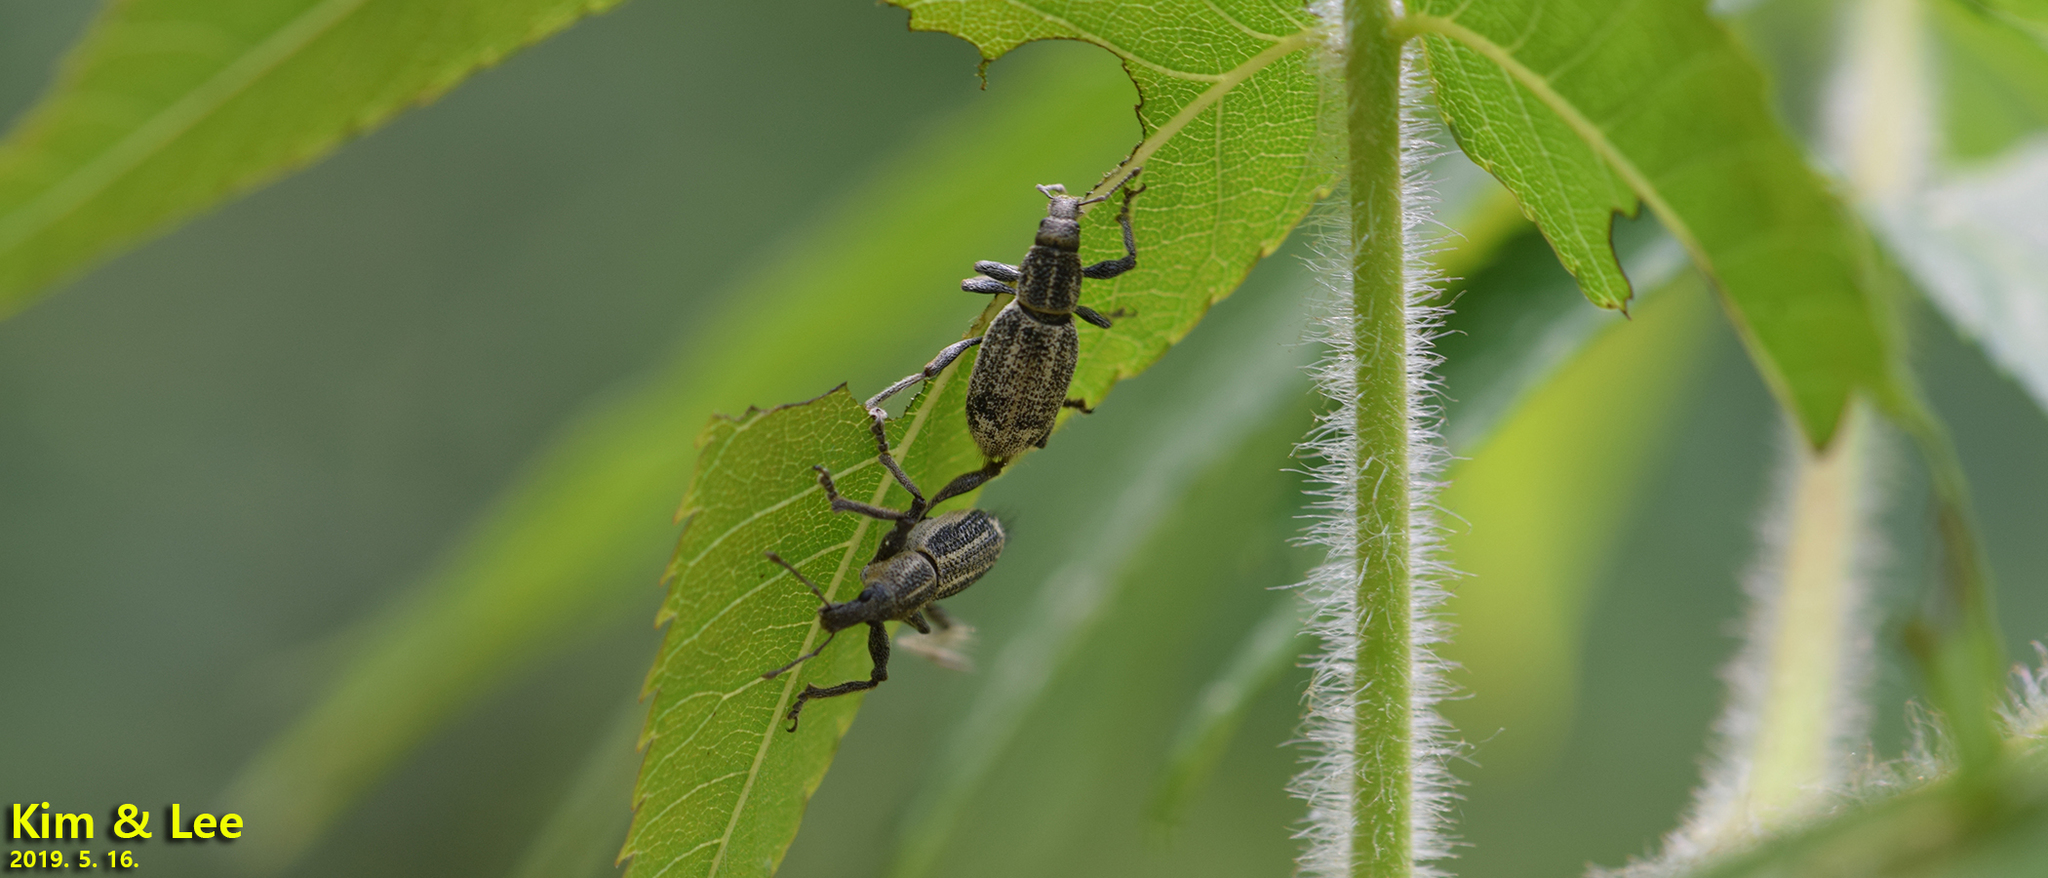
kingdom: Animalia
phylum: Arthropoda
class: Insecta
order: Coleoptera
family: Curculionidae
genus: Enaptorhinus
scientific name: Enaptorhinus granulatus
